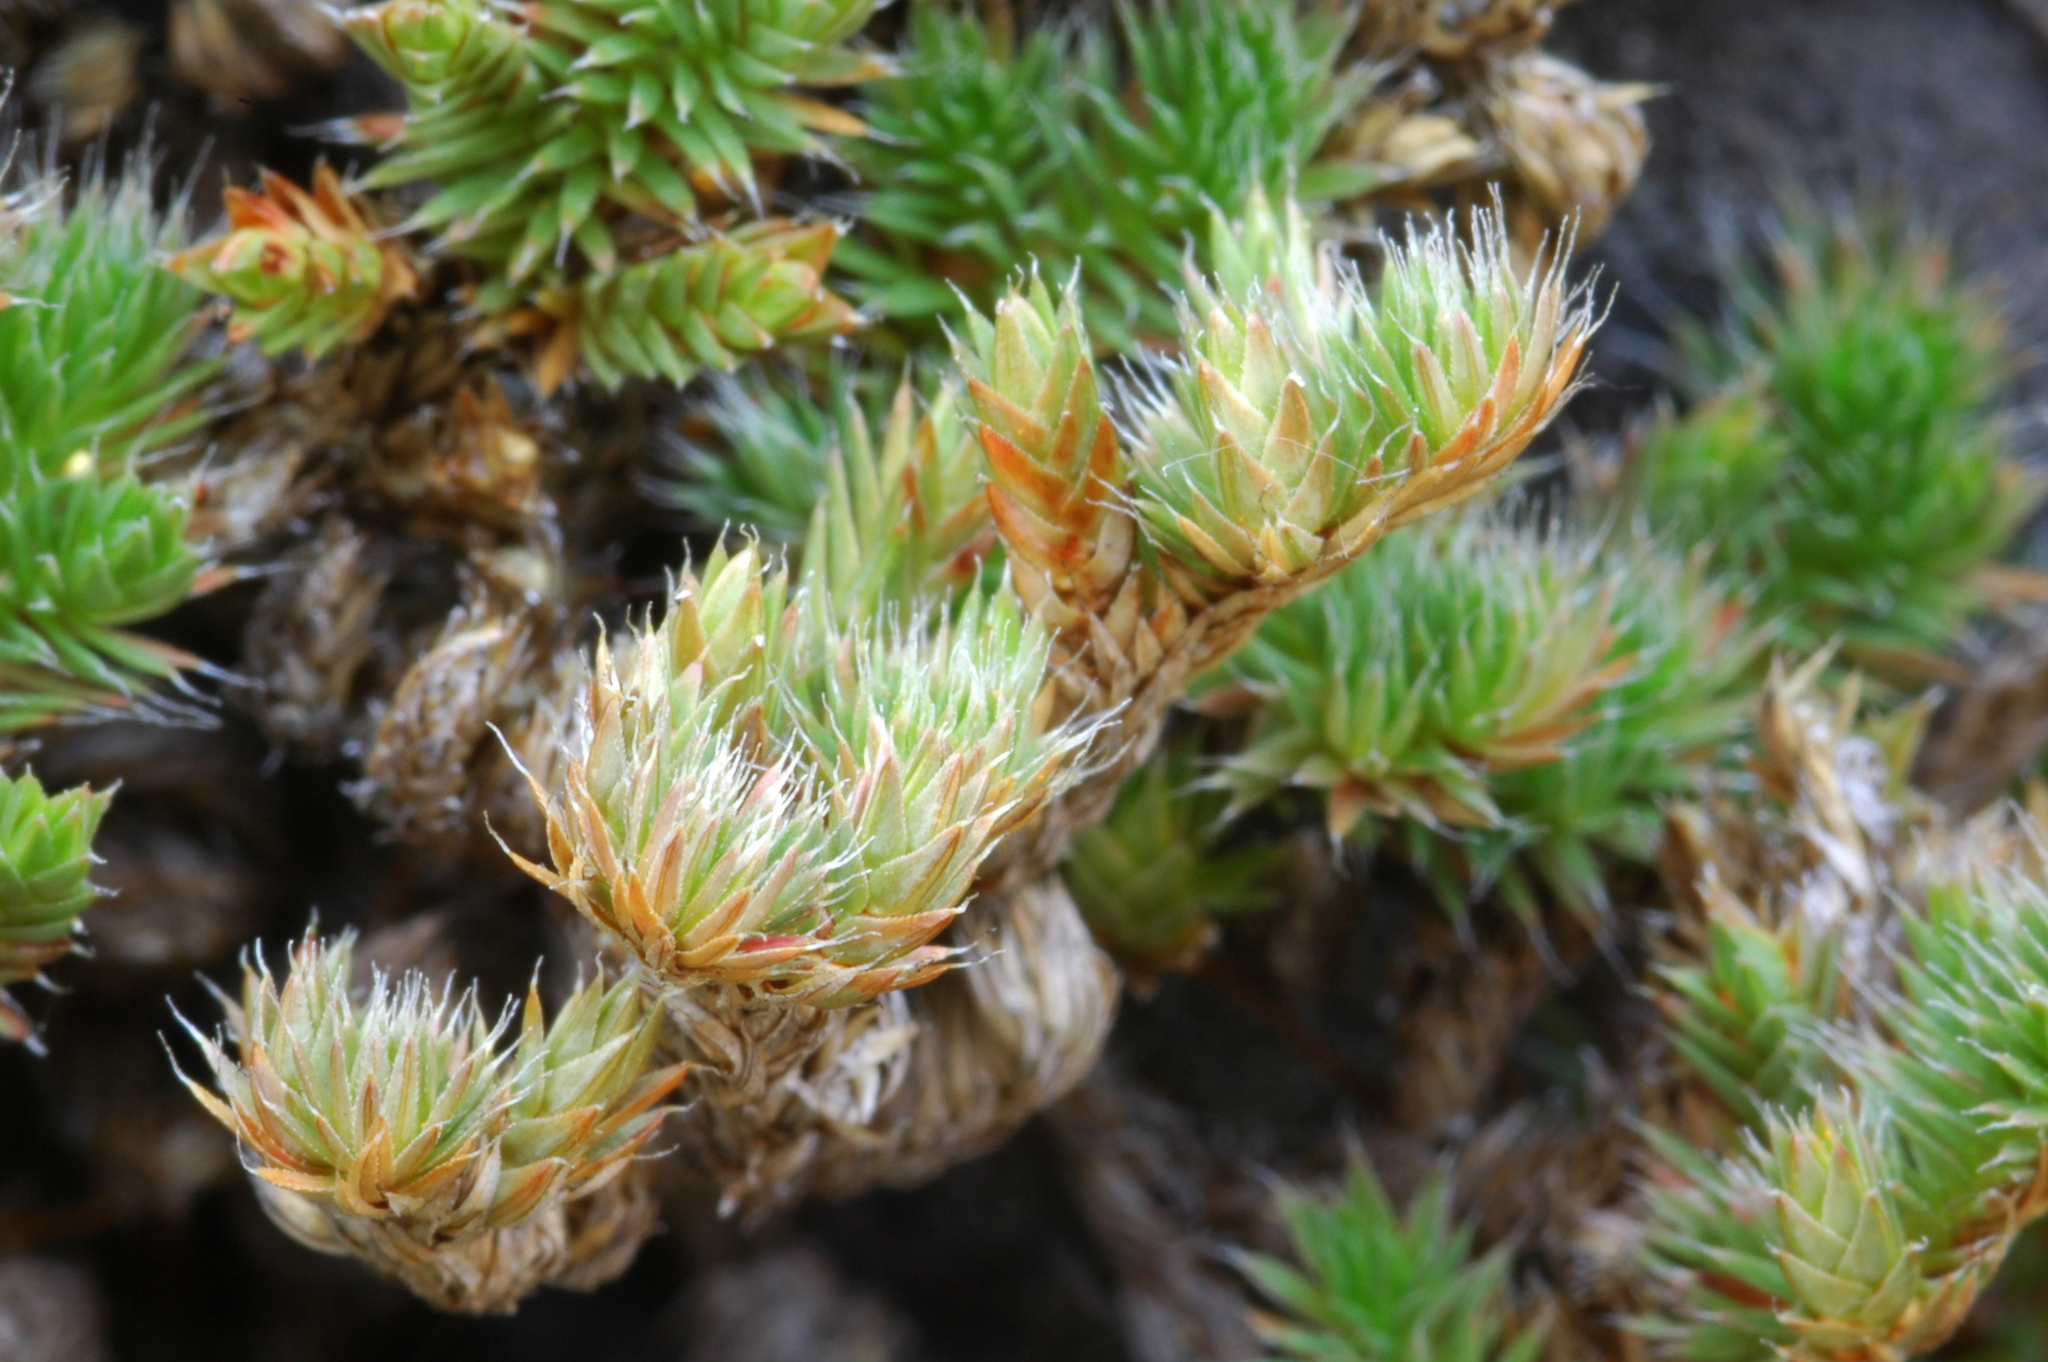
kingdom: Plantae
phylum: Tracheophyta
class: Lycopodiopsida
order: Selaginellales
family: Selaginellaceae
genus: Selaginella
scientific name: Selaginella hansenii
